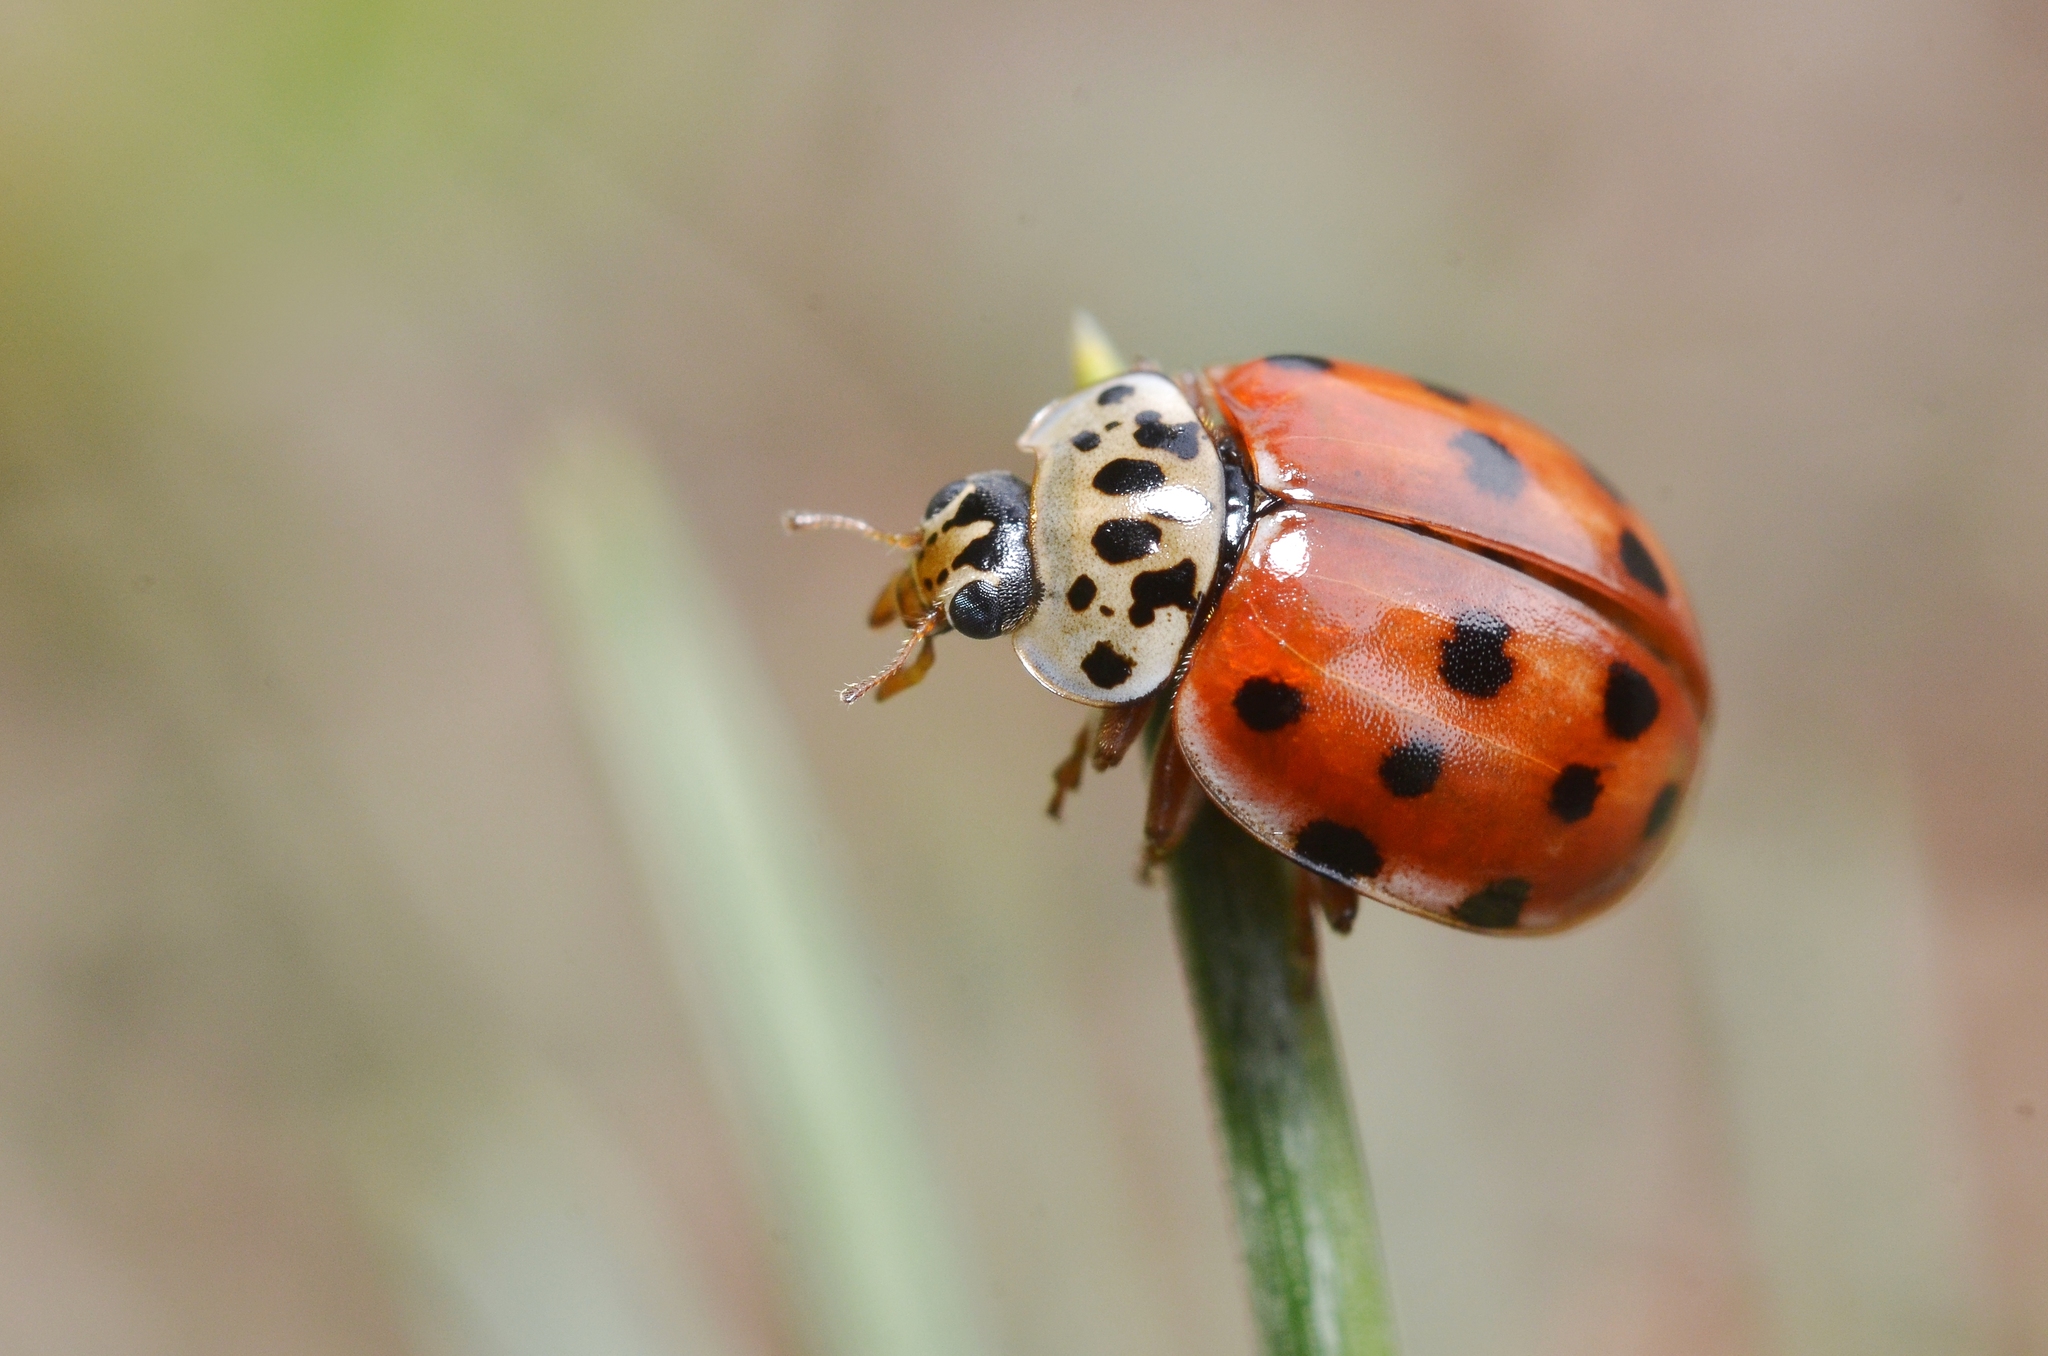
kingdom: Animalia
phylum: Arthropoda
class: Insecta
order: Coleoptera
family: Coccinellidae
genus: Harmonia
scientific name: Harmonia quadripunctata
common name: Cream-streaked ladybird
